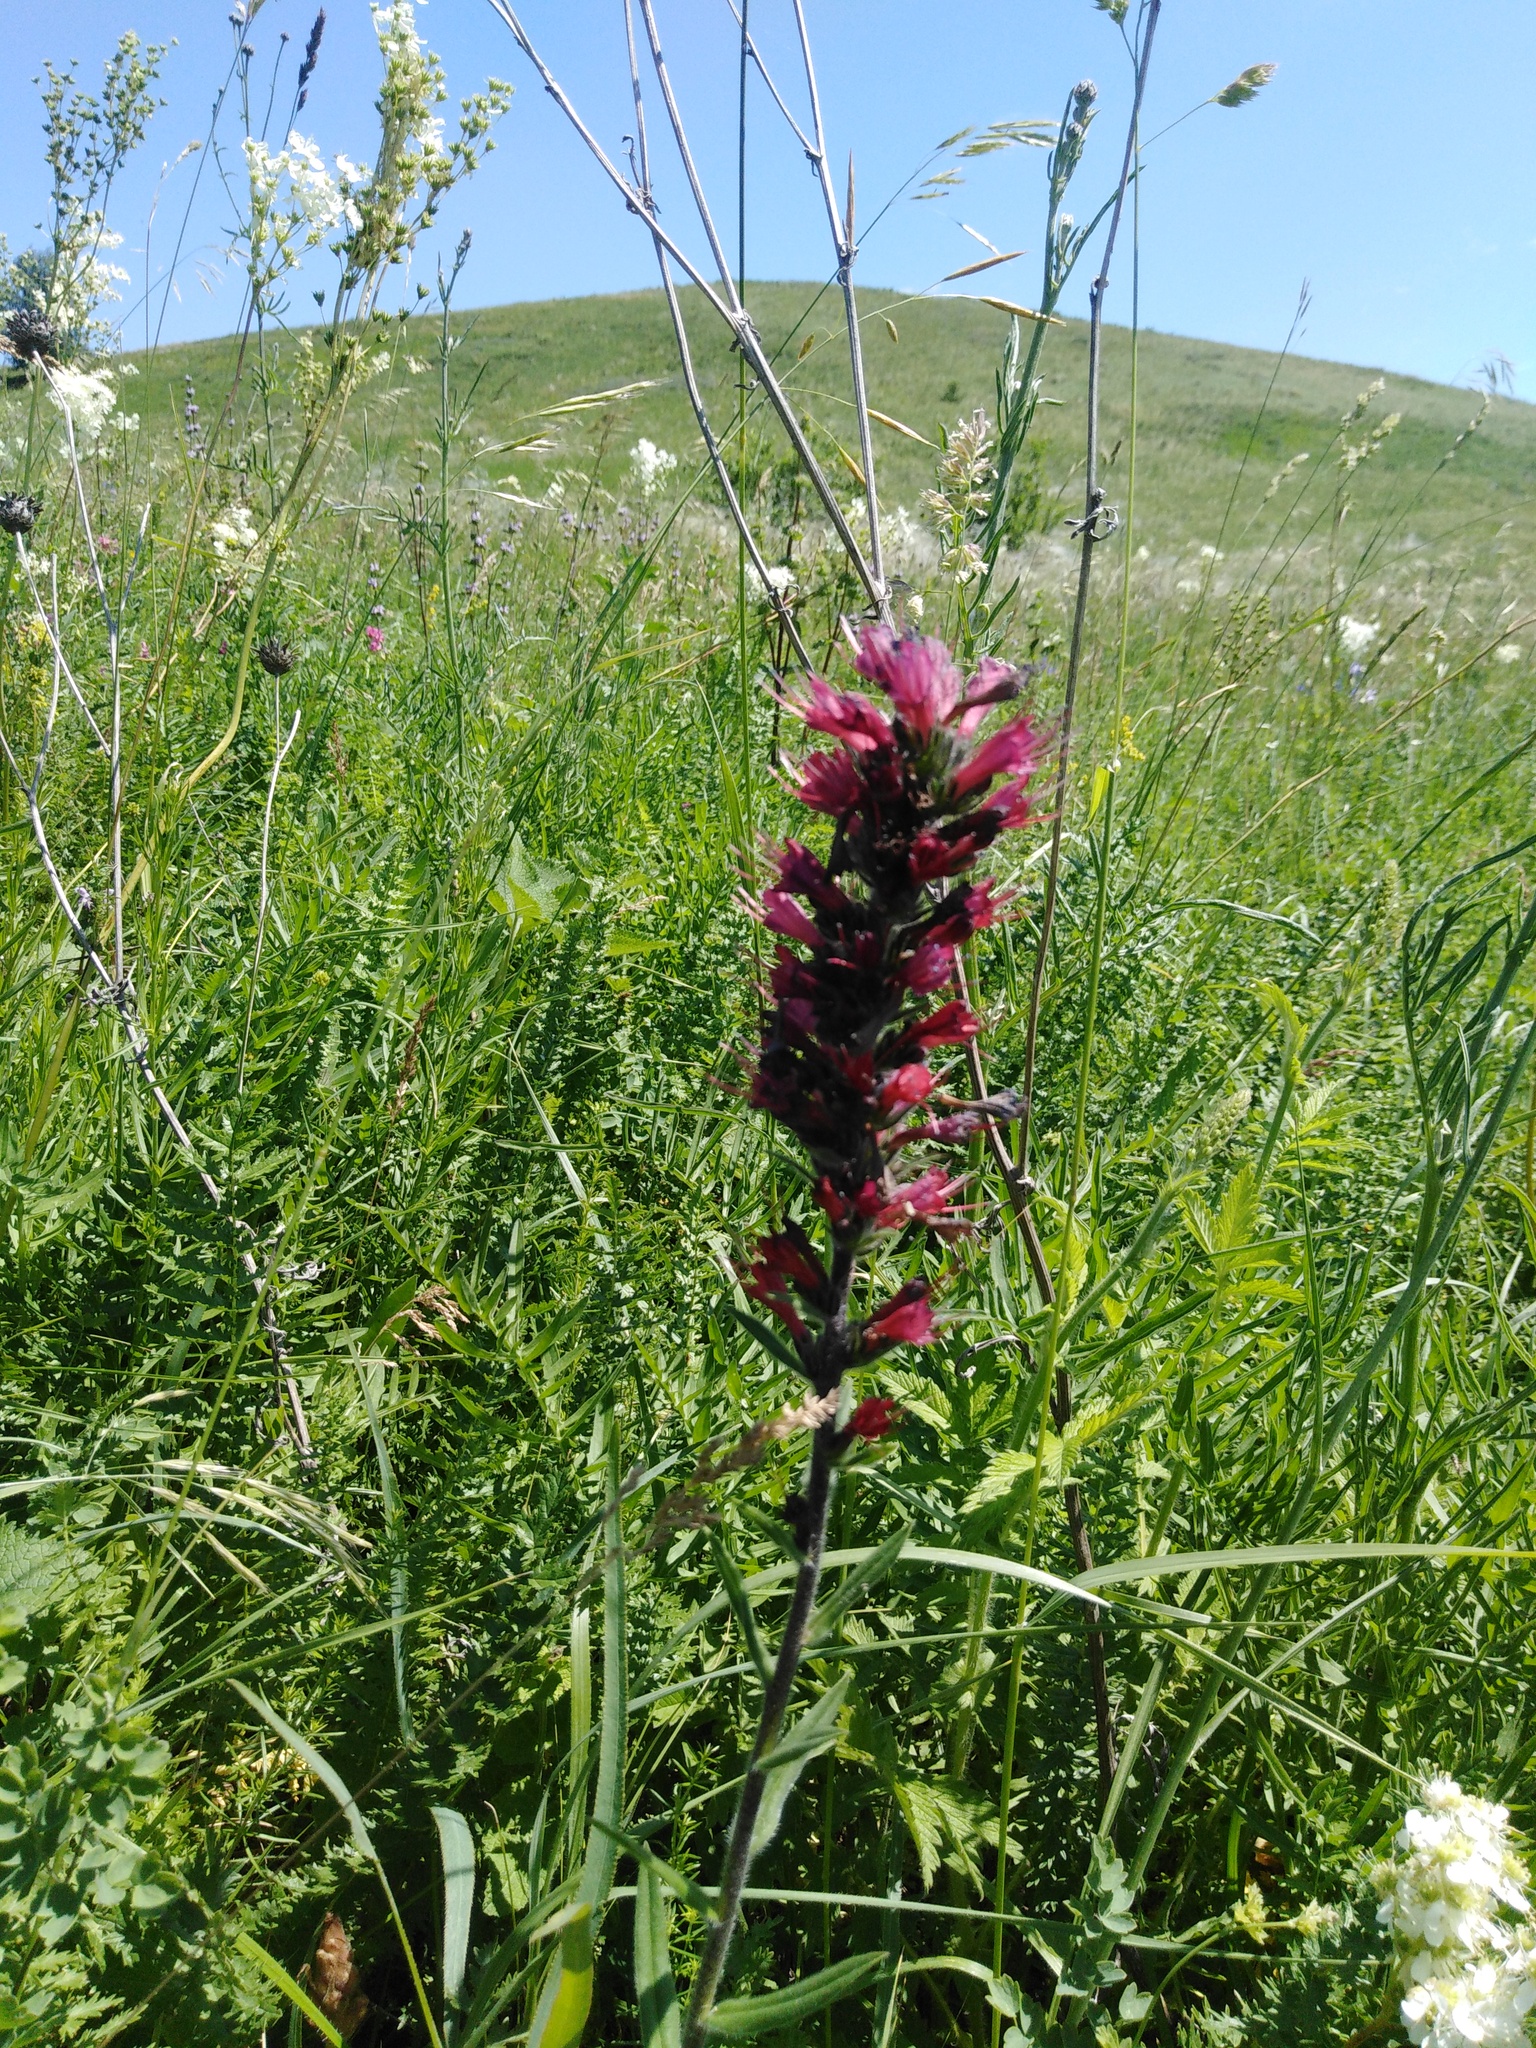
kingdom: Plantae
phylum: Tracheophyta
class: Magnoliopsida
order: Boraginales
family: Boraginaceae
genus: Pontechium
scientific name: Pontechium maculatum
